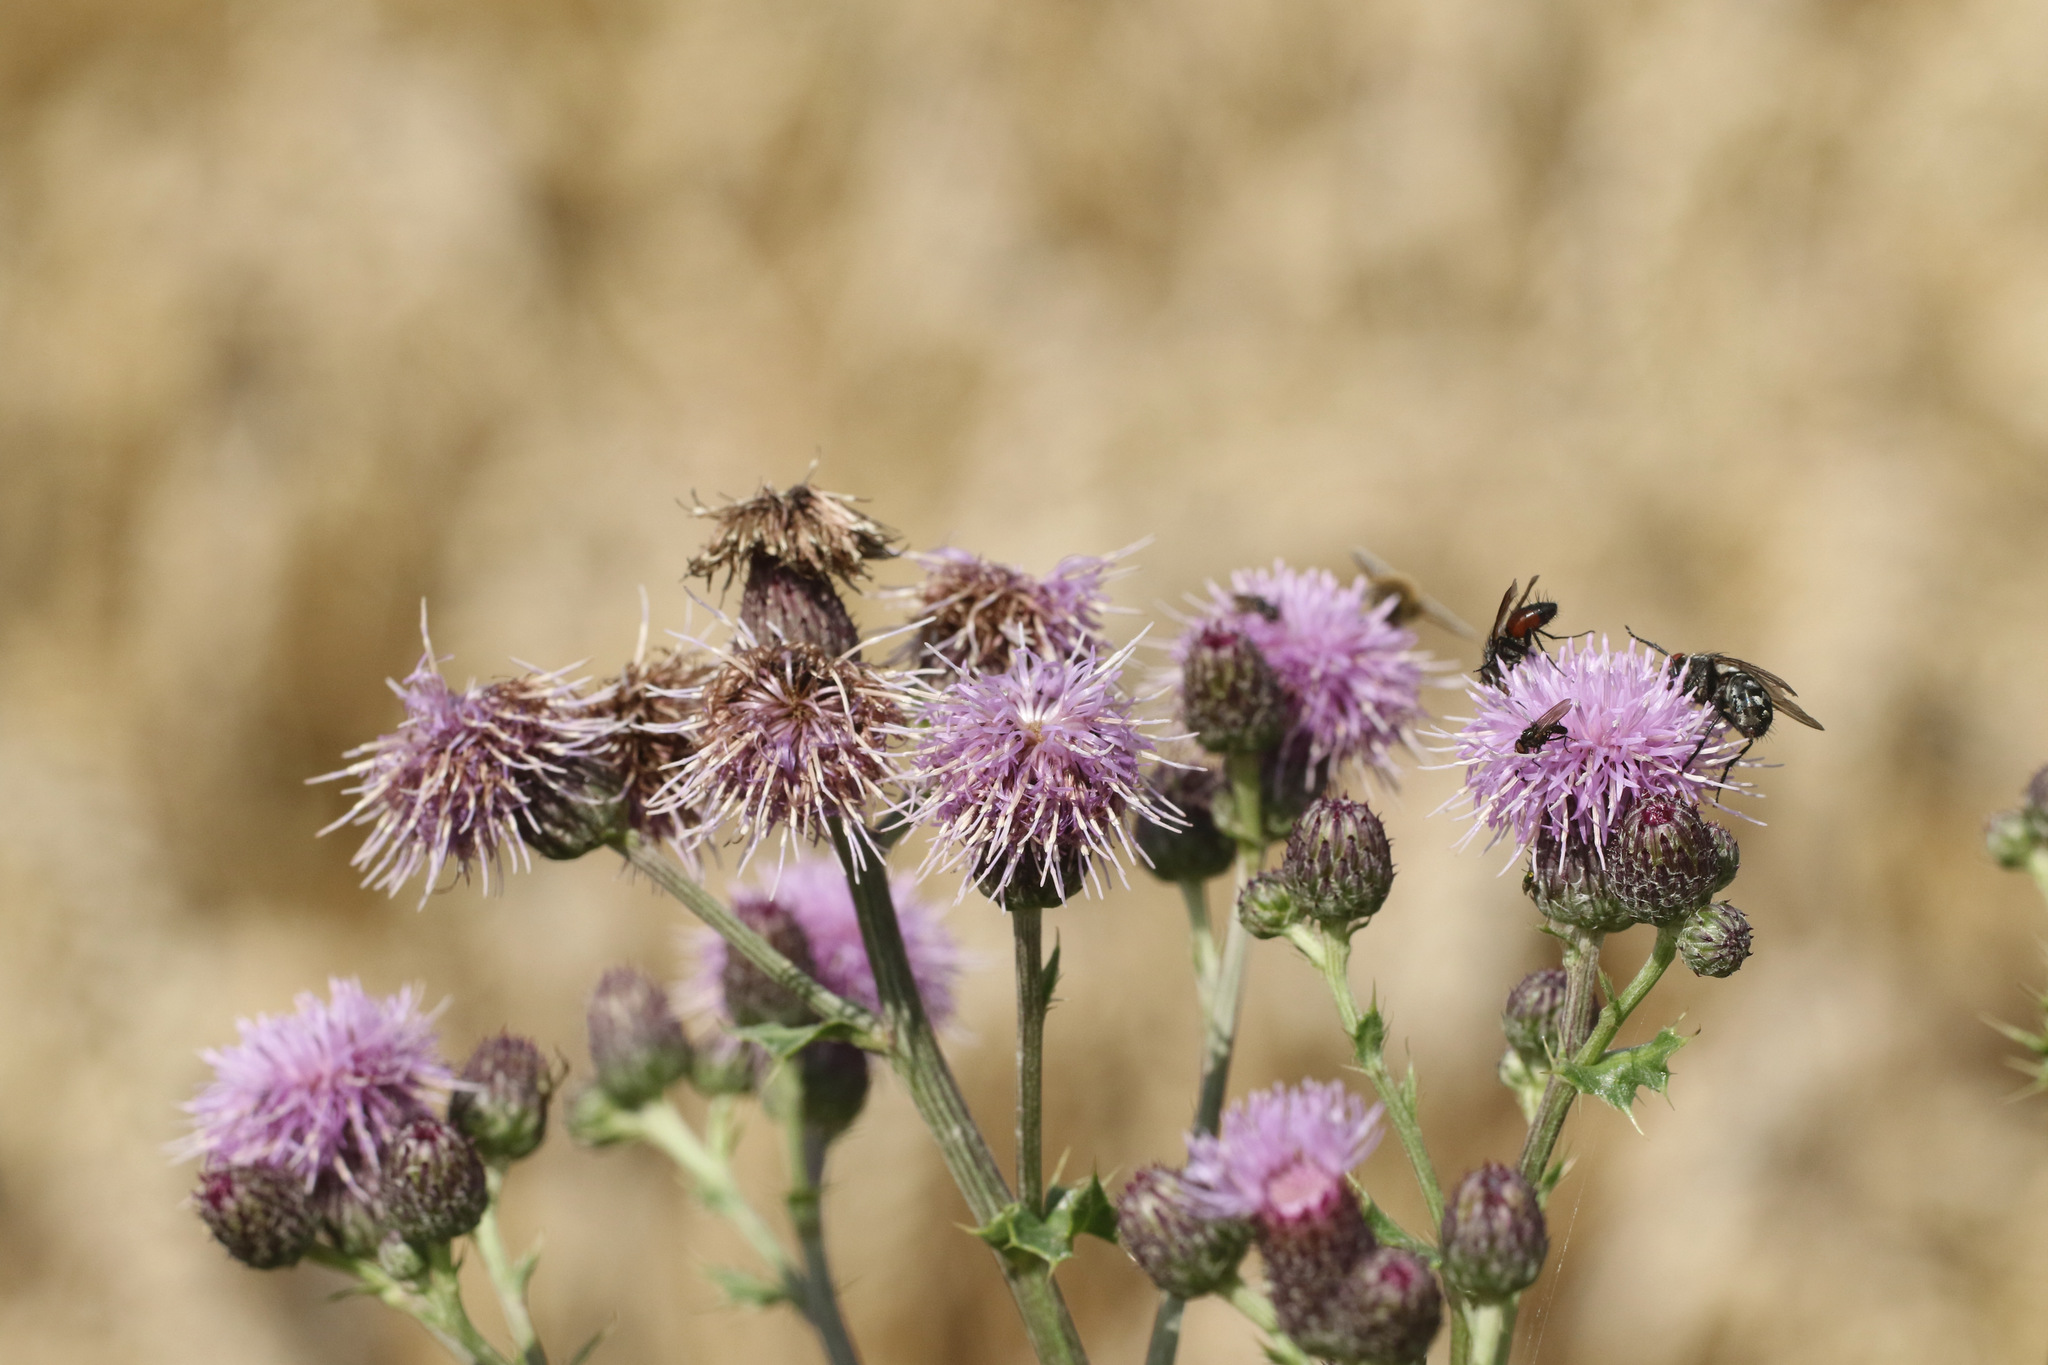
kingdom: Plantae
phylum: Tracheophyta
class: Magnoliopsida
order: Asterales
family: Asteraceae
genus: Cirsium
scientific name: Cirsium arvense
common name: Creeping thistle
